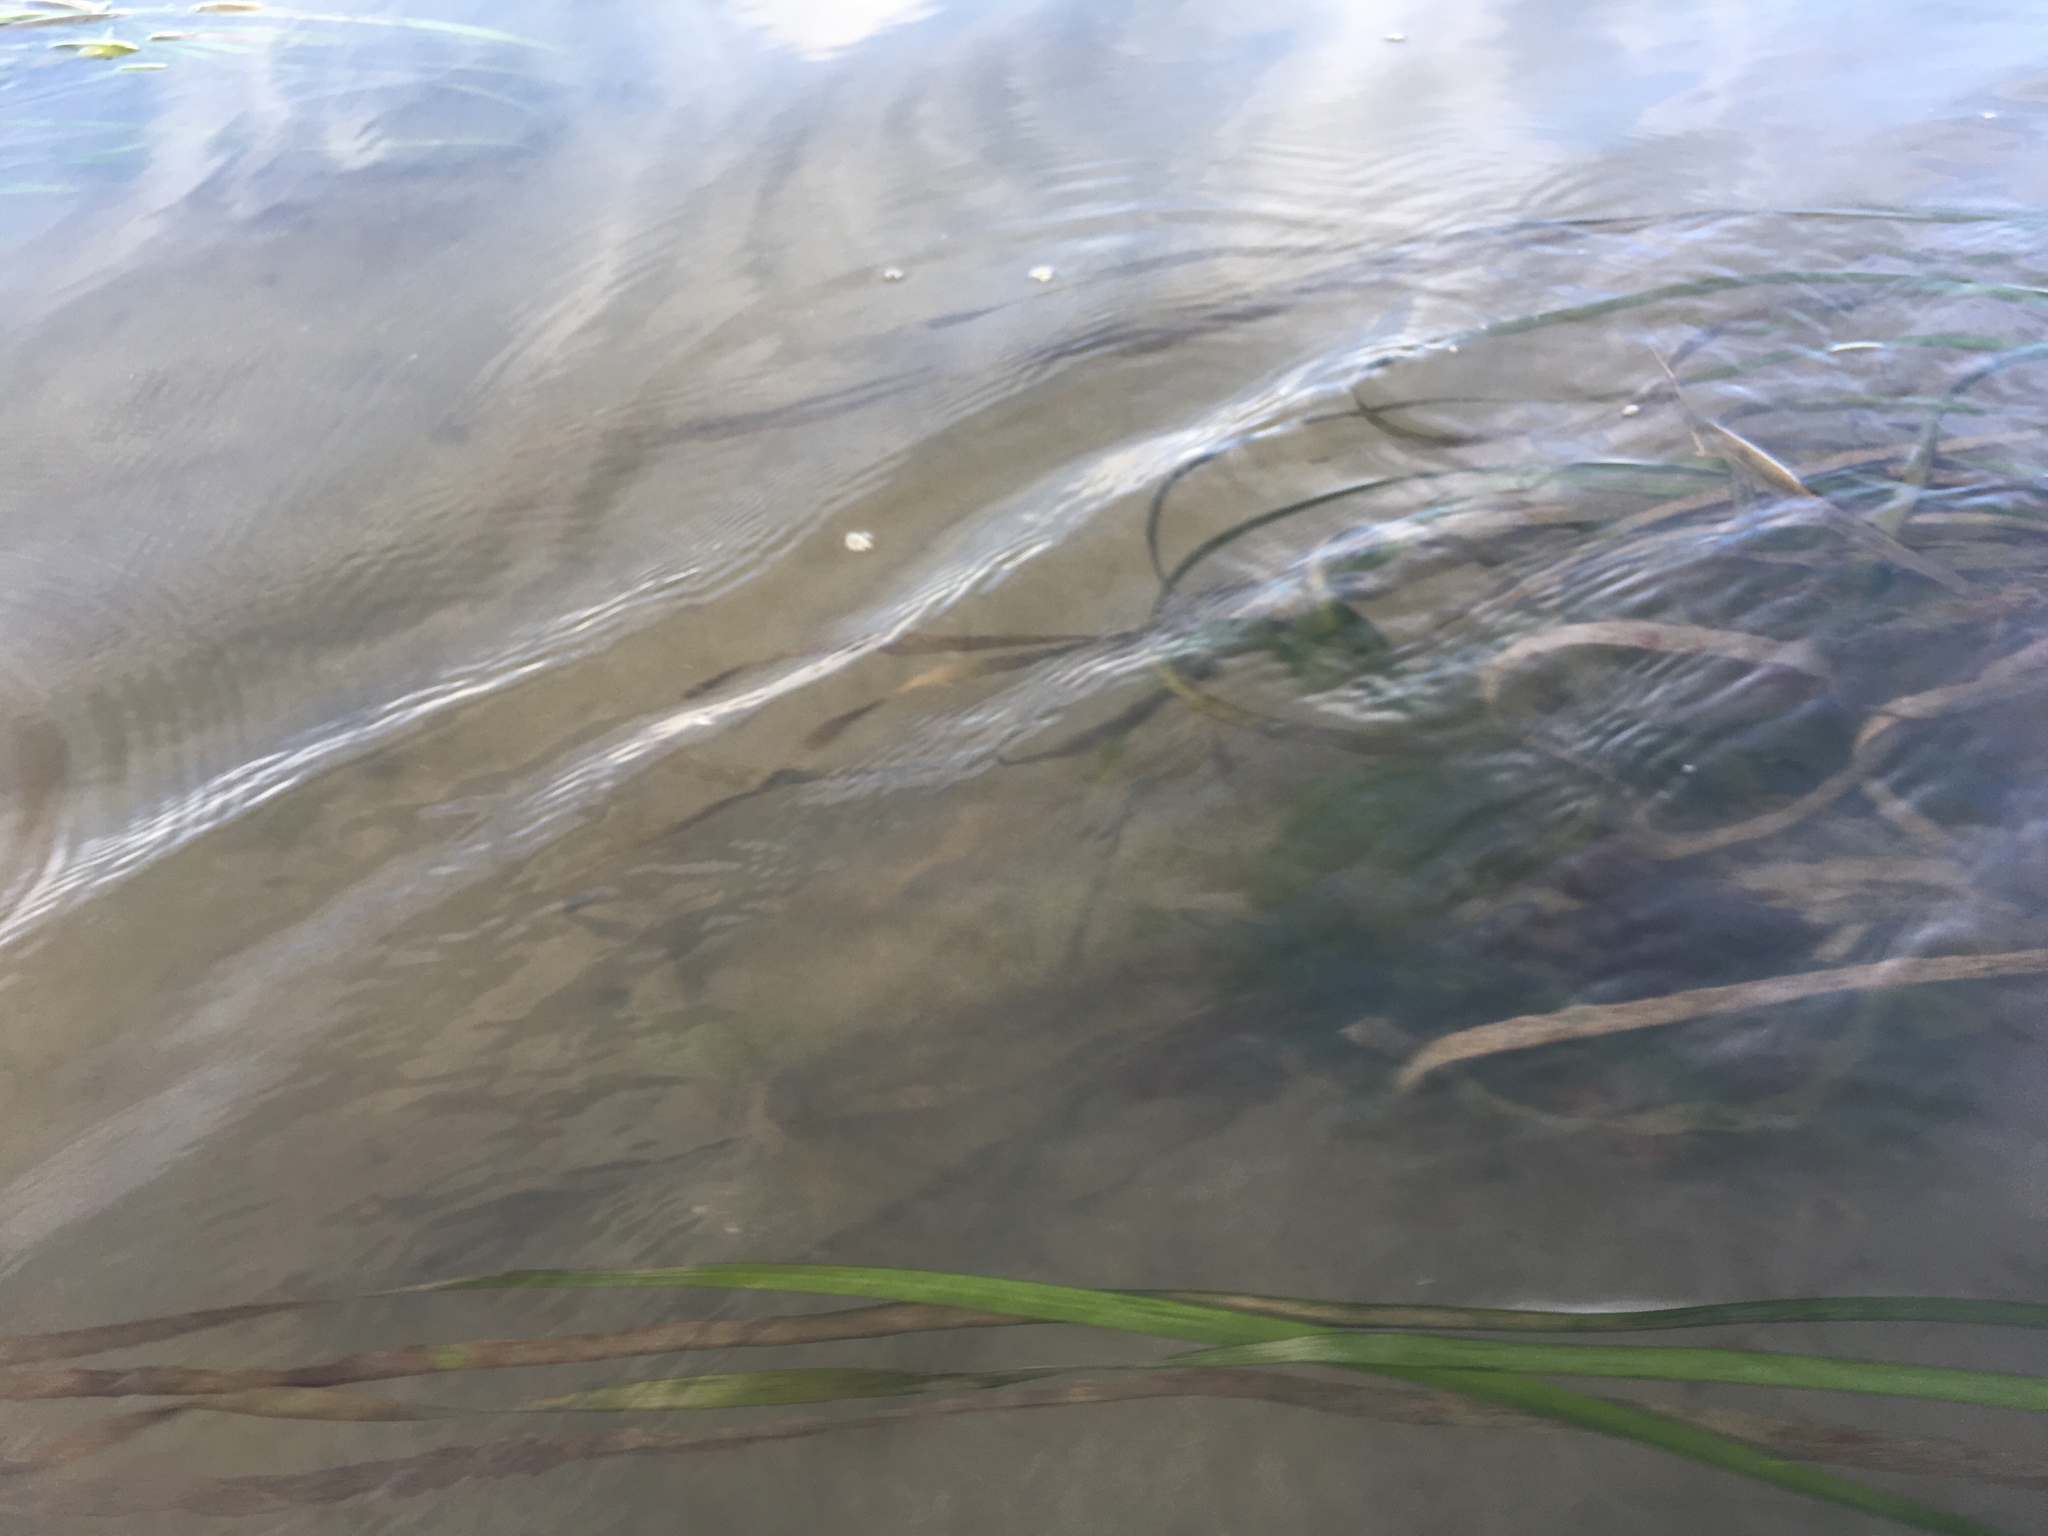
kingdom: Plantae
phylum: Tracheophyta
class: Liliopsida
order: Alismatales
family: Zosteraceae
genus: Zostera
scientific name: Zostera marina
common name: Eelgrass
